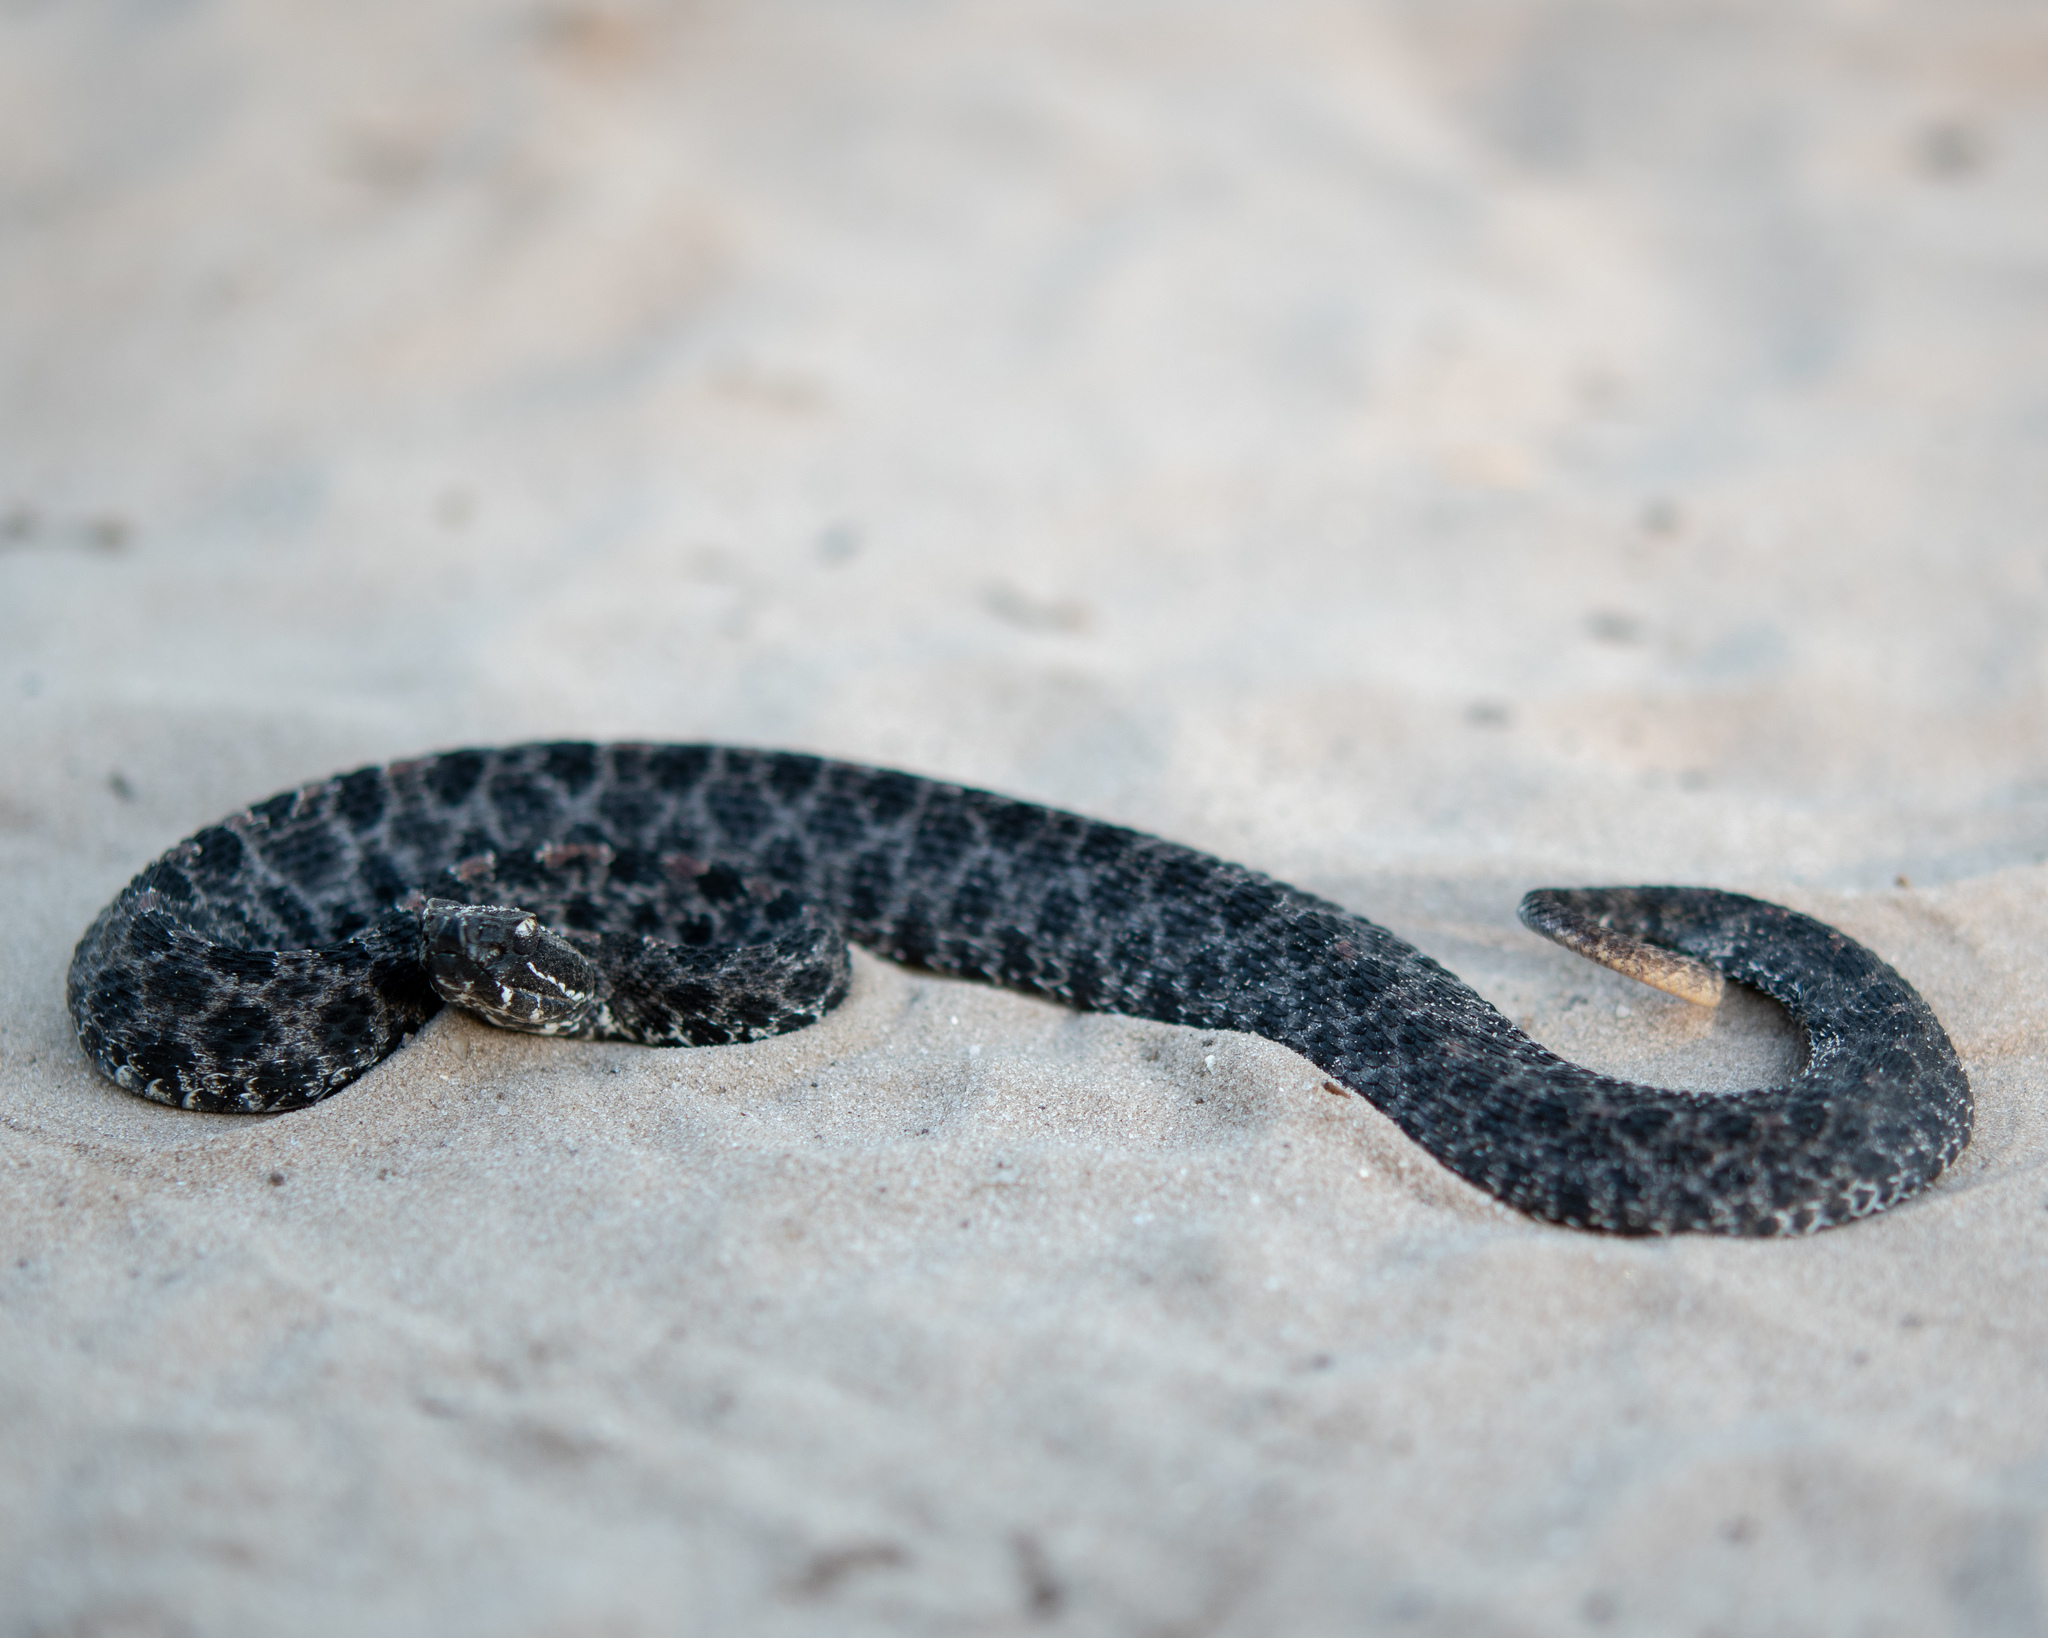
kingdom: Animalia
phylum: Chordata
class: Squamata
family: Viperidae
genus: Sistrurus
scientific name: Sistrurus miliarius
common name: Pygmy rattlesnake
